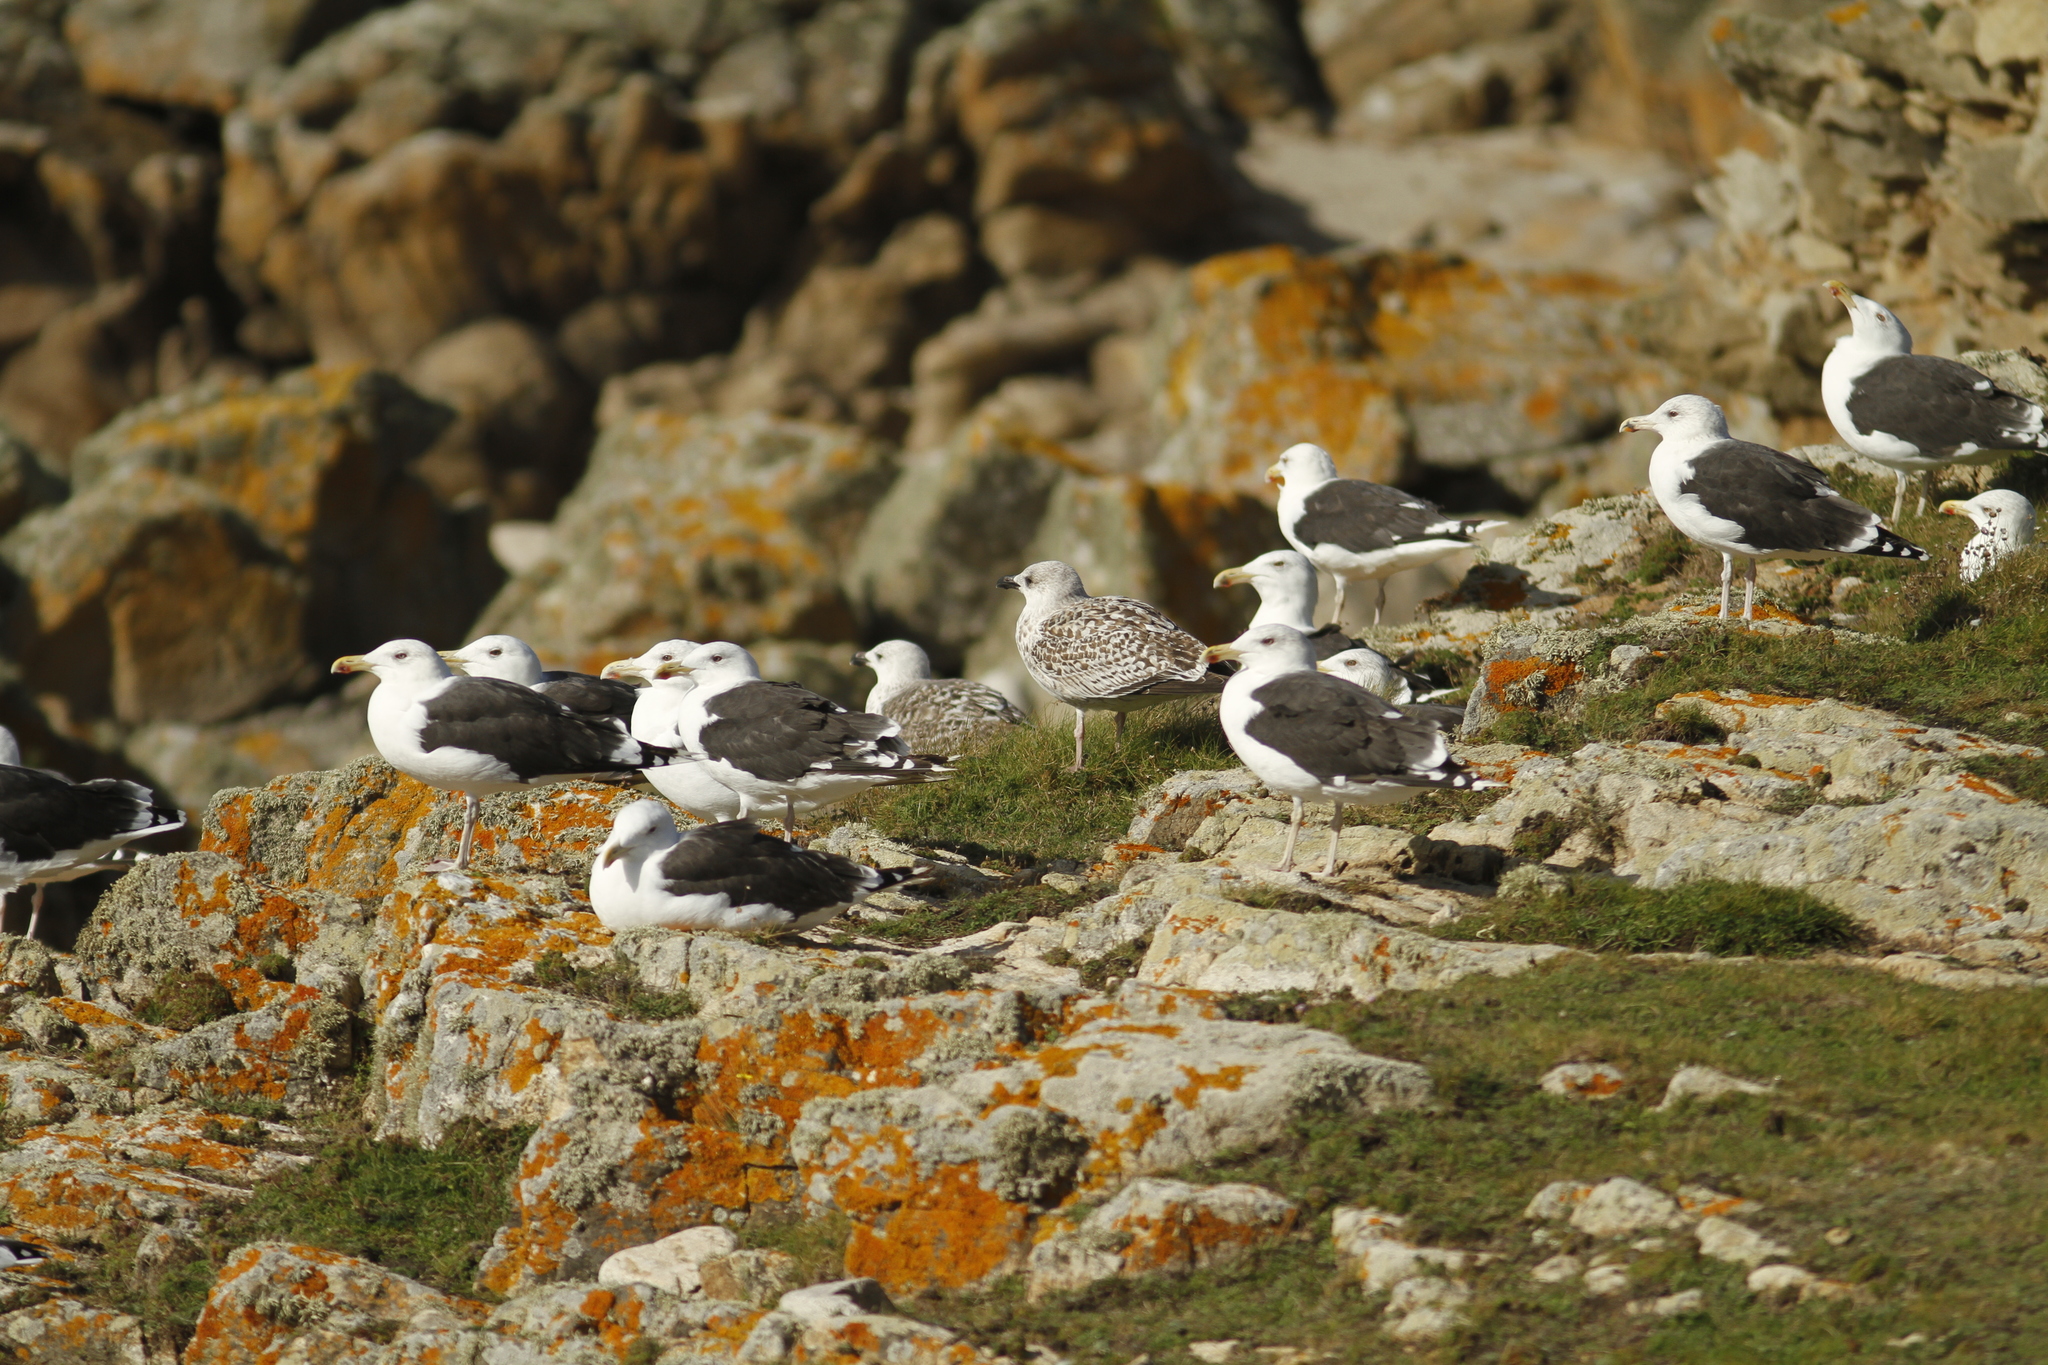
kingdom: Animalia
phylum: Chordata
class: Aves
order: Charadriiformes
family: Laridae
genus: Larus
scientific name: Larus marinus
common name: Great black-backed gull
